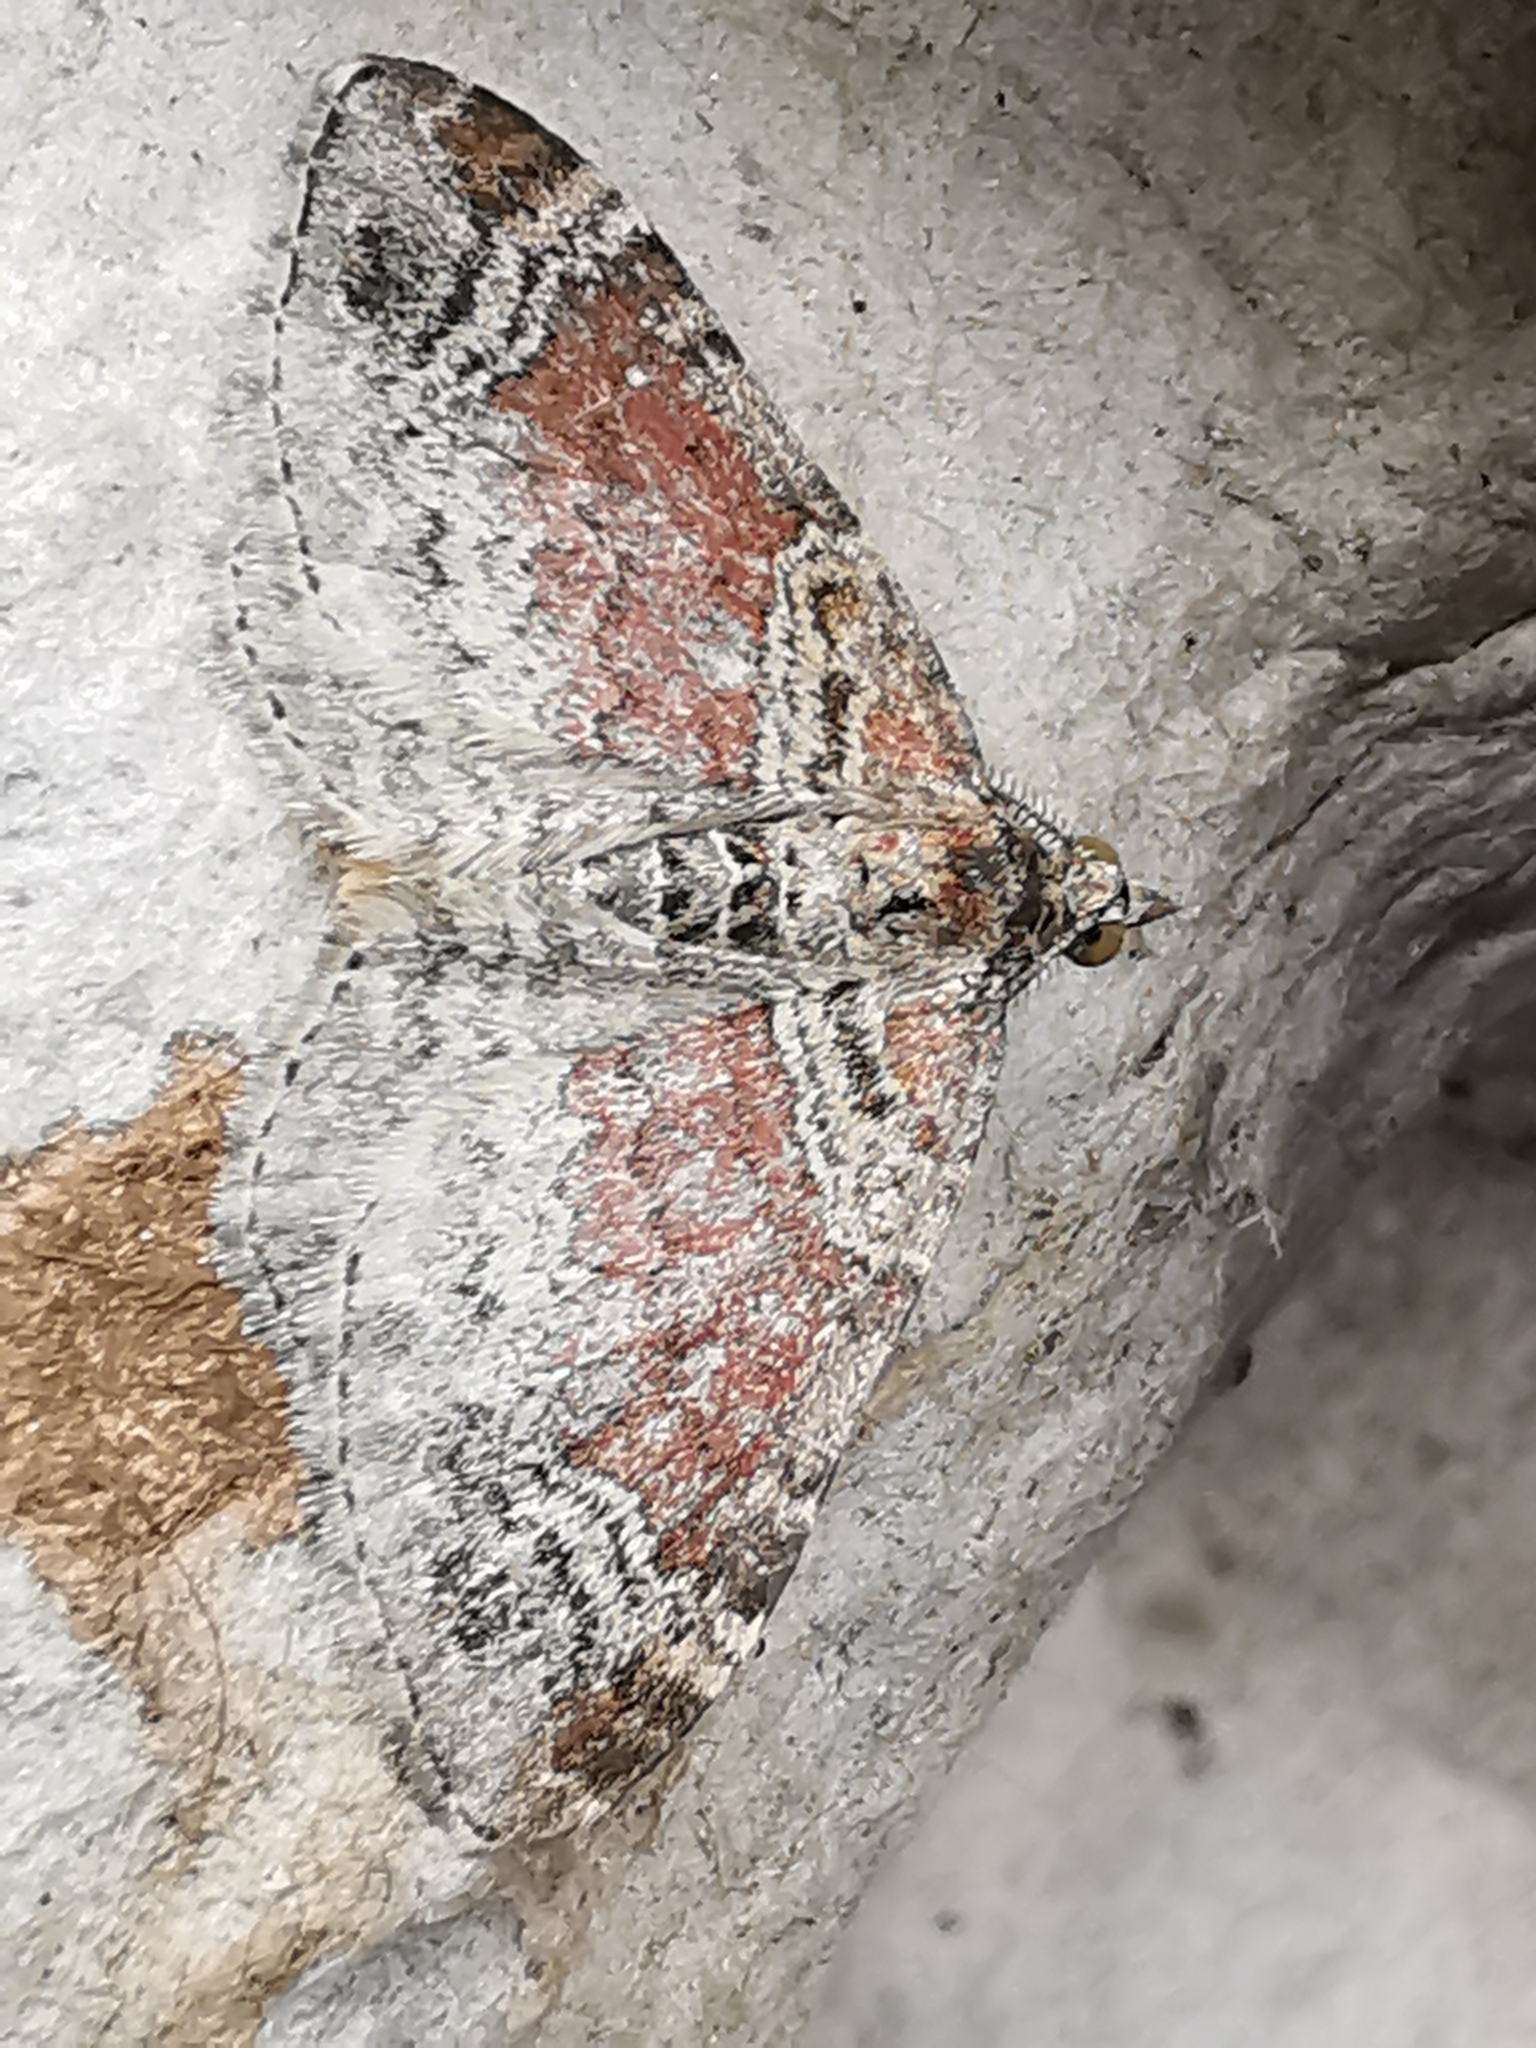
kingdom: Animalia
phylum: Arthropoda
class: Insecta
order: Lepidoptera
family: Geometridae
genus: Xanthorhoe
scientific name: Xanthorhoe spadicearia
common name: Red twin-spot carpet
